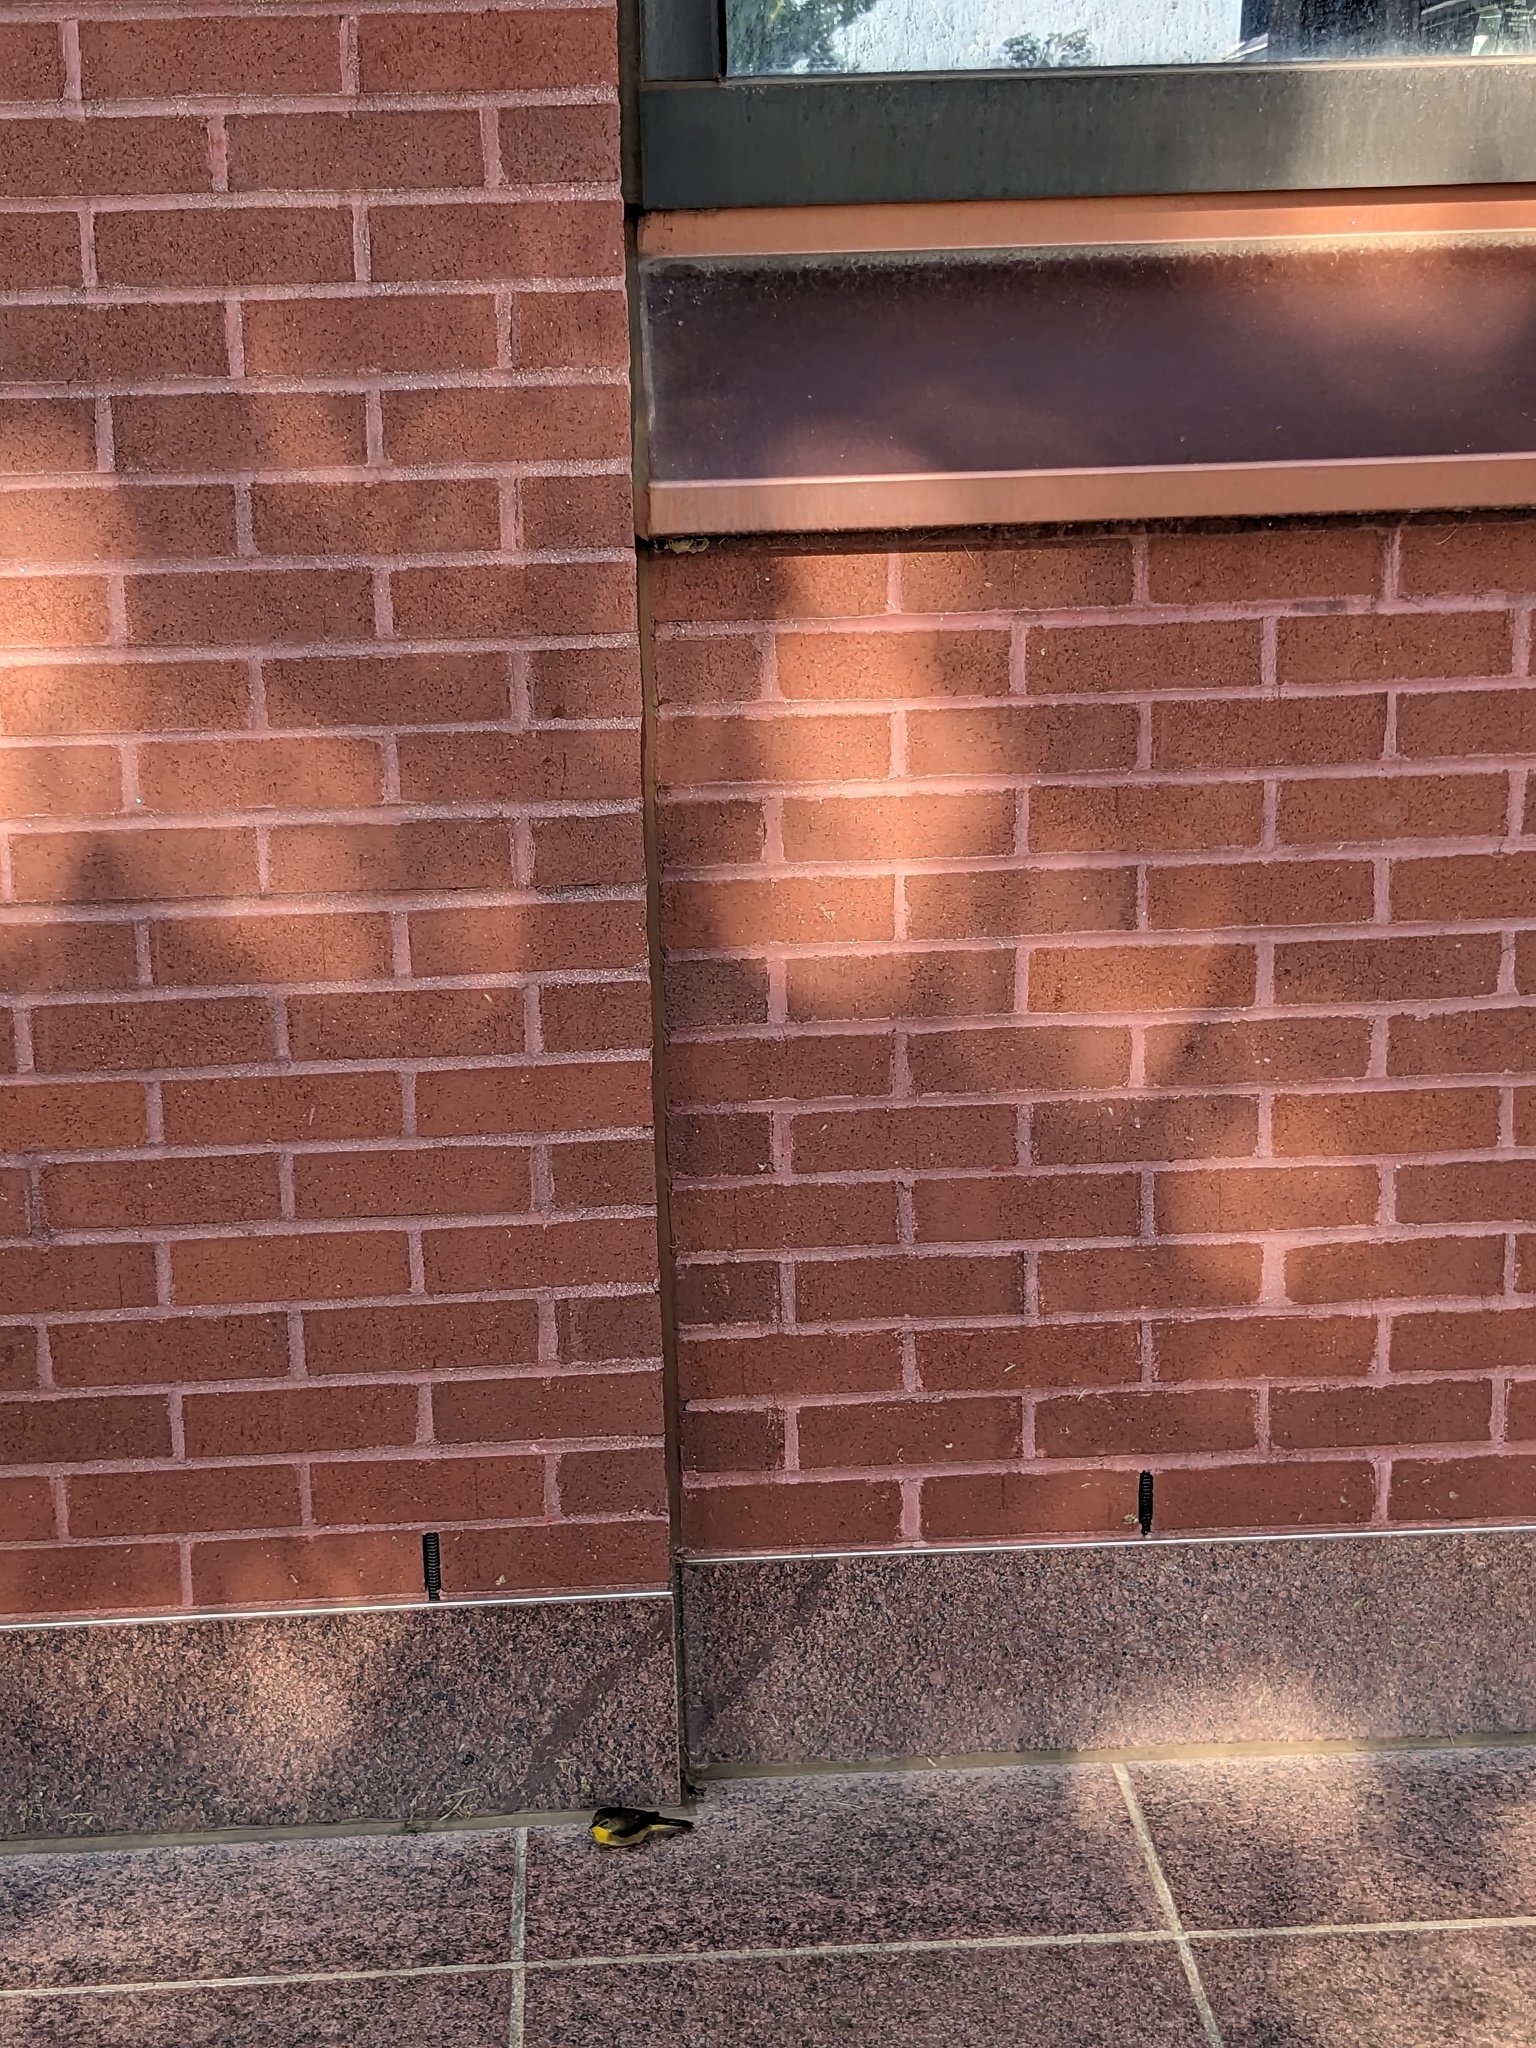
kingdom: Animalia
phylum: Chordata
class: Aves
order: Passeriformes
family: Parulidae
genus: Geothlypis
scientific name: Geothlypis trichas
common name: Common yellowthroat
